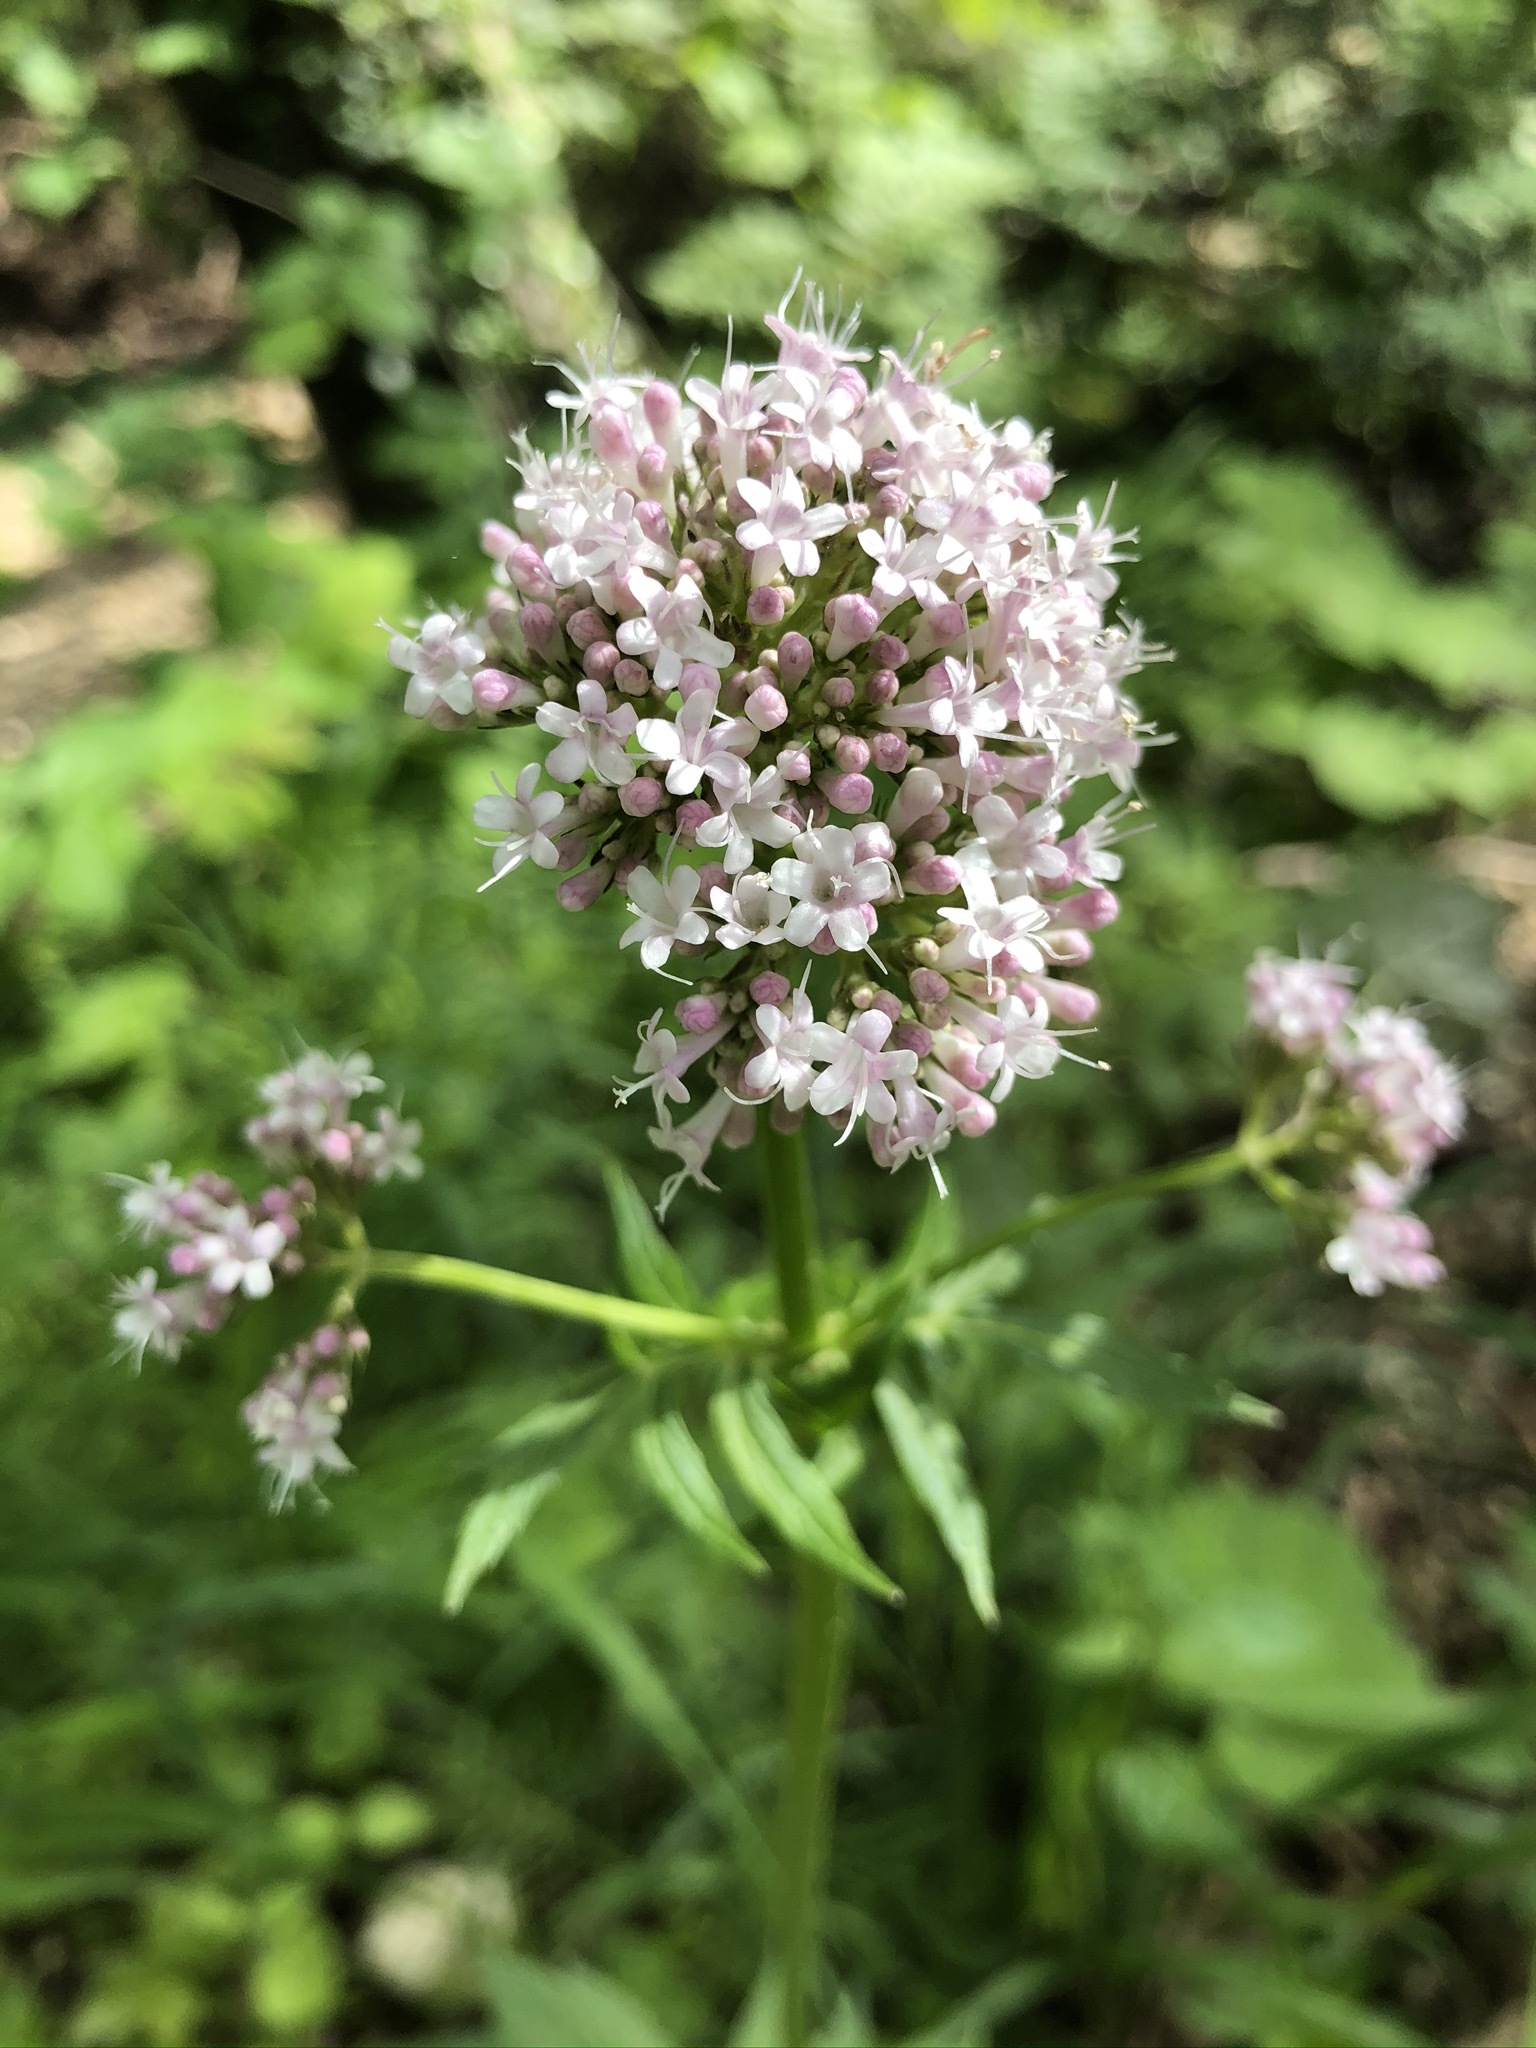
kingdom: Plantae
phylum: Tracheophyta
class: Magnoliopsida
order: Dipsacales
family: Caprifoliaceae
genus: Valeriana
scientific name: Valeriana officinalis
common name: Common valerian
